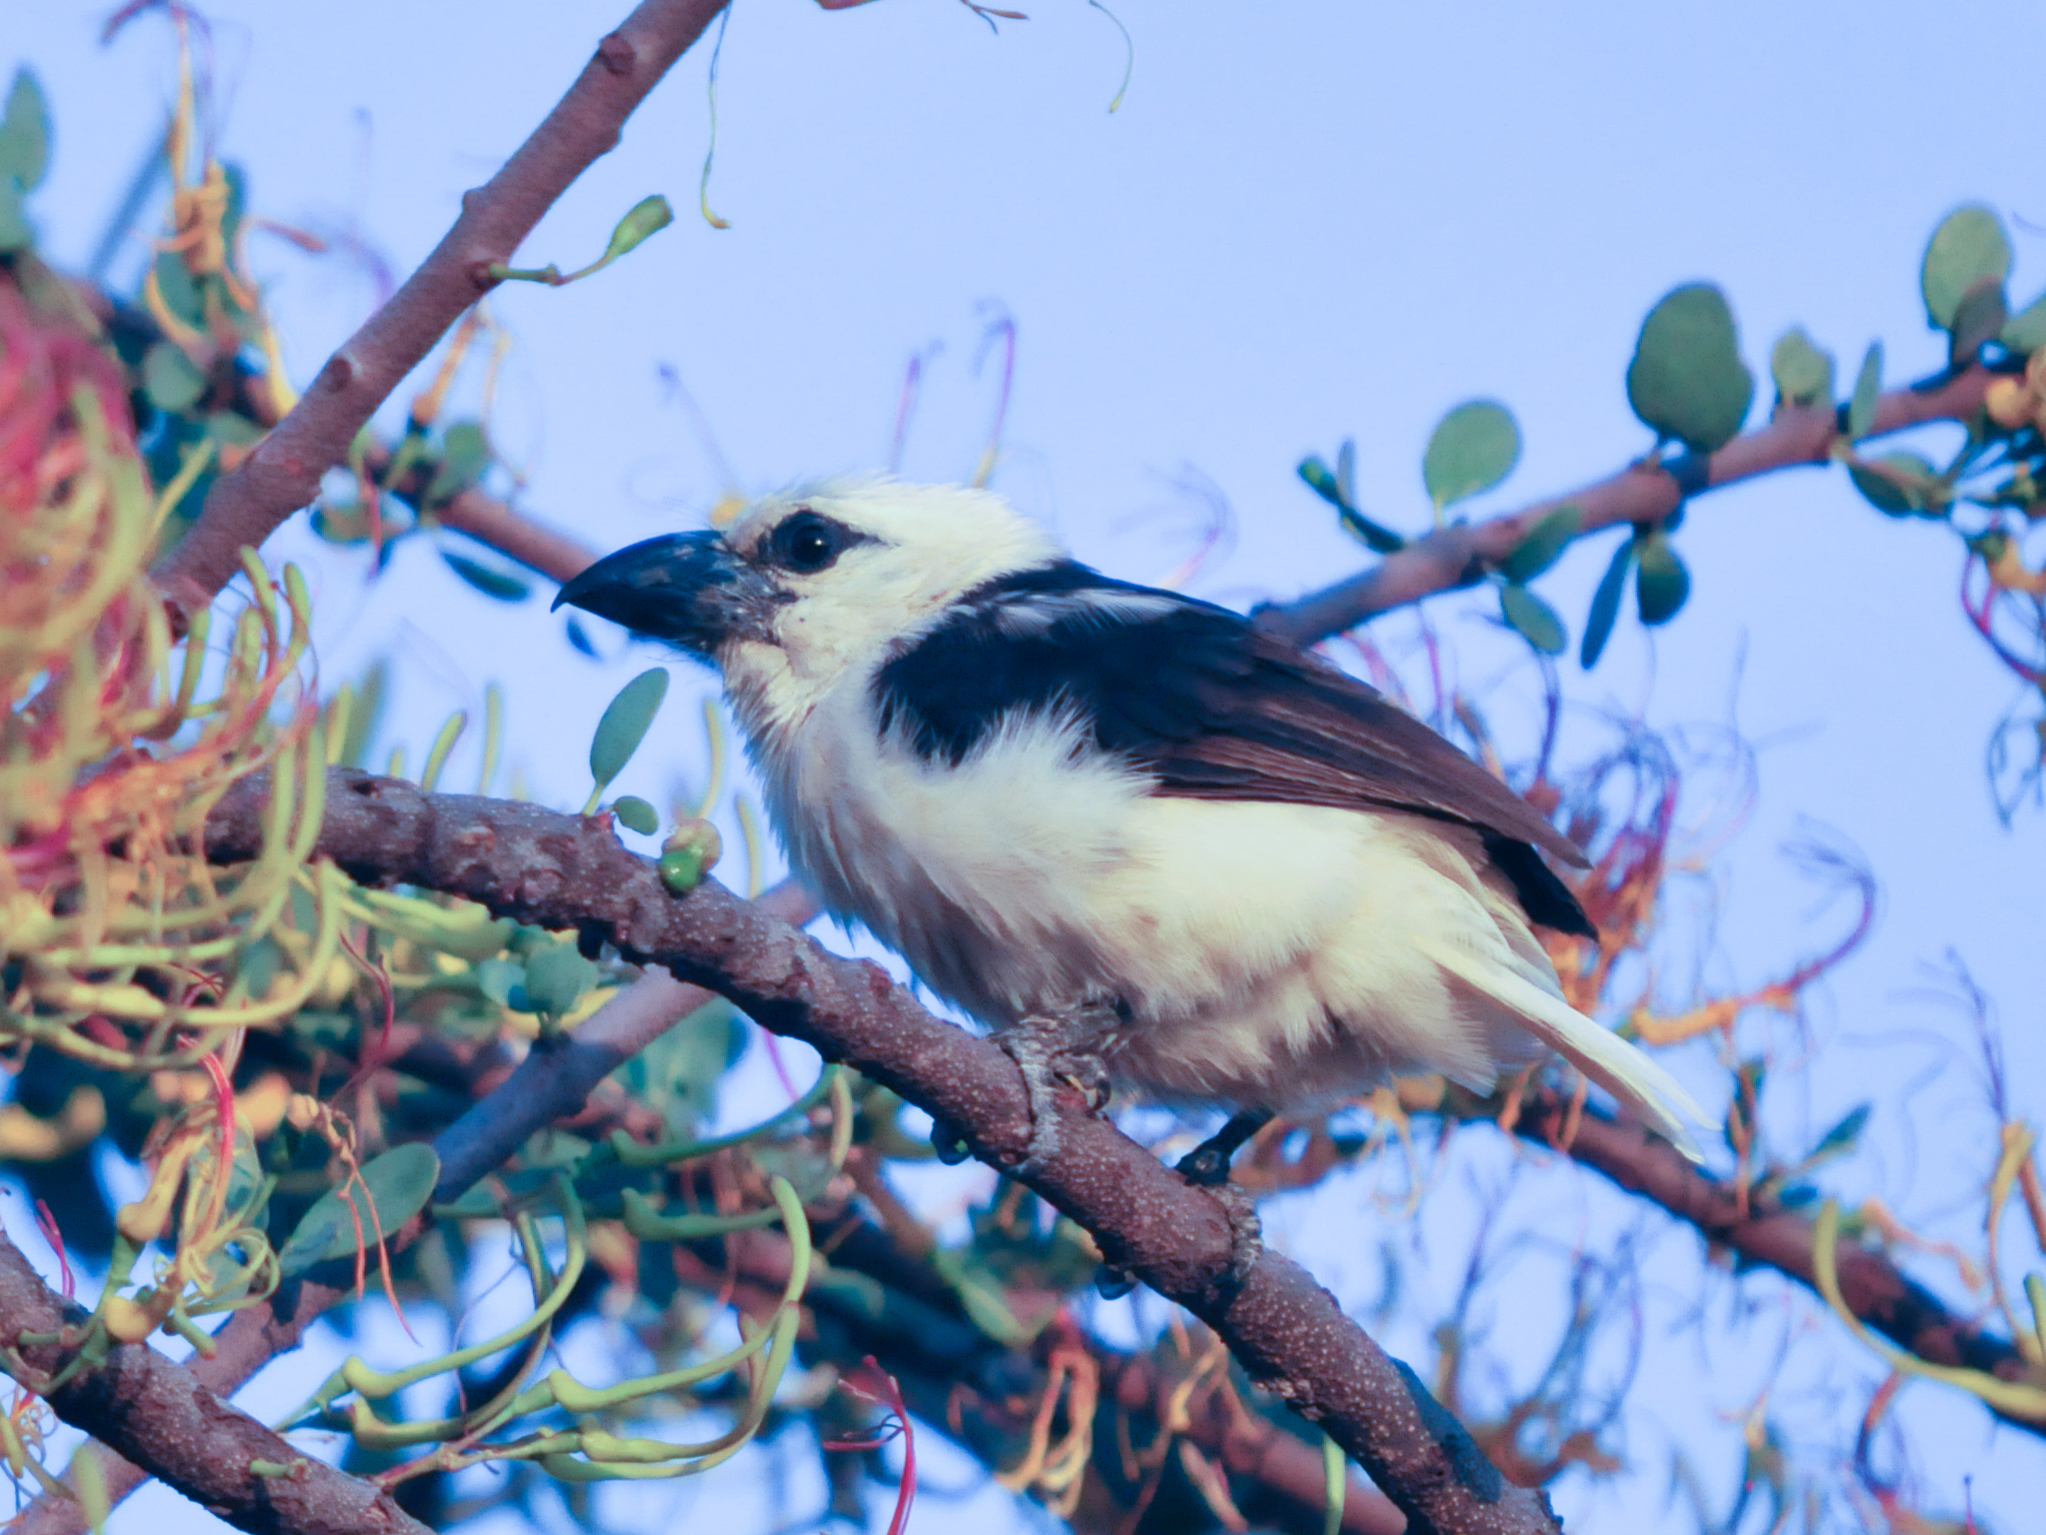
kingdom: Animalia
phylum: Chordata
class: Aves
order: Piciformes
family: Lybiidae
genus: Lybius
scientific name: Lybius leucocephalus
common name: White-headed barbet
